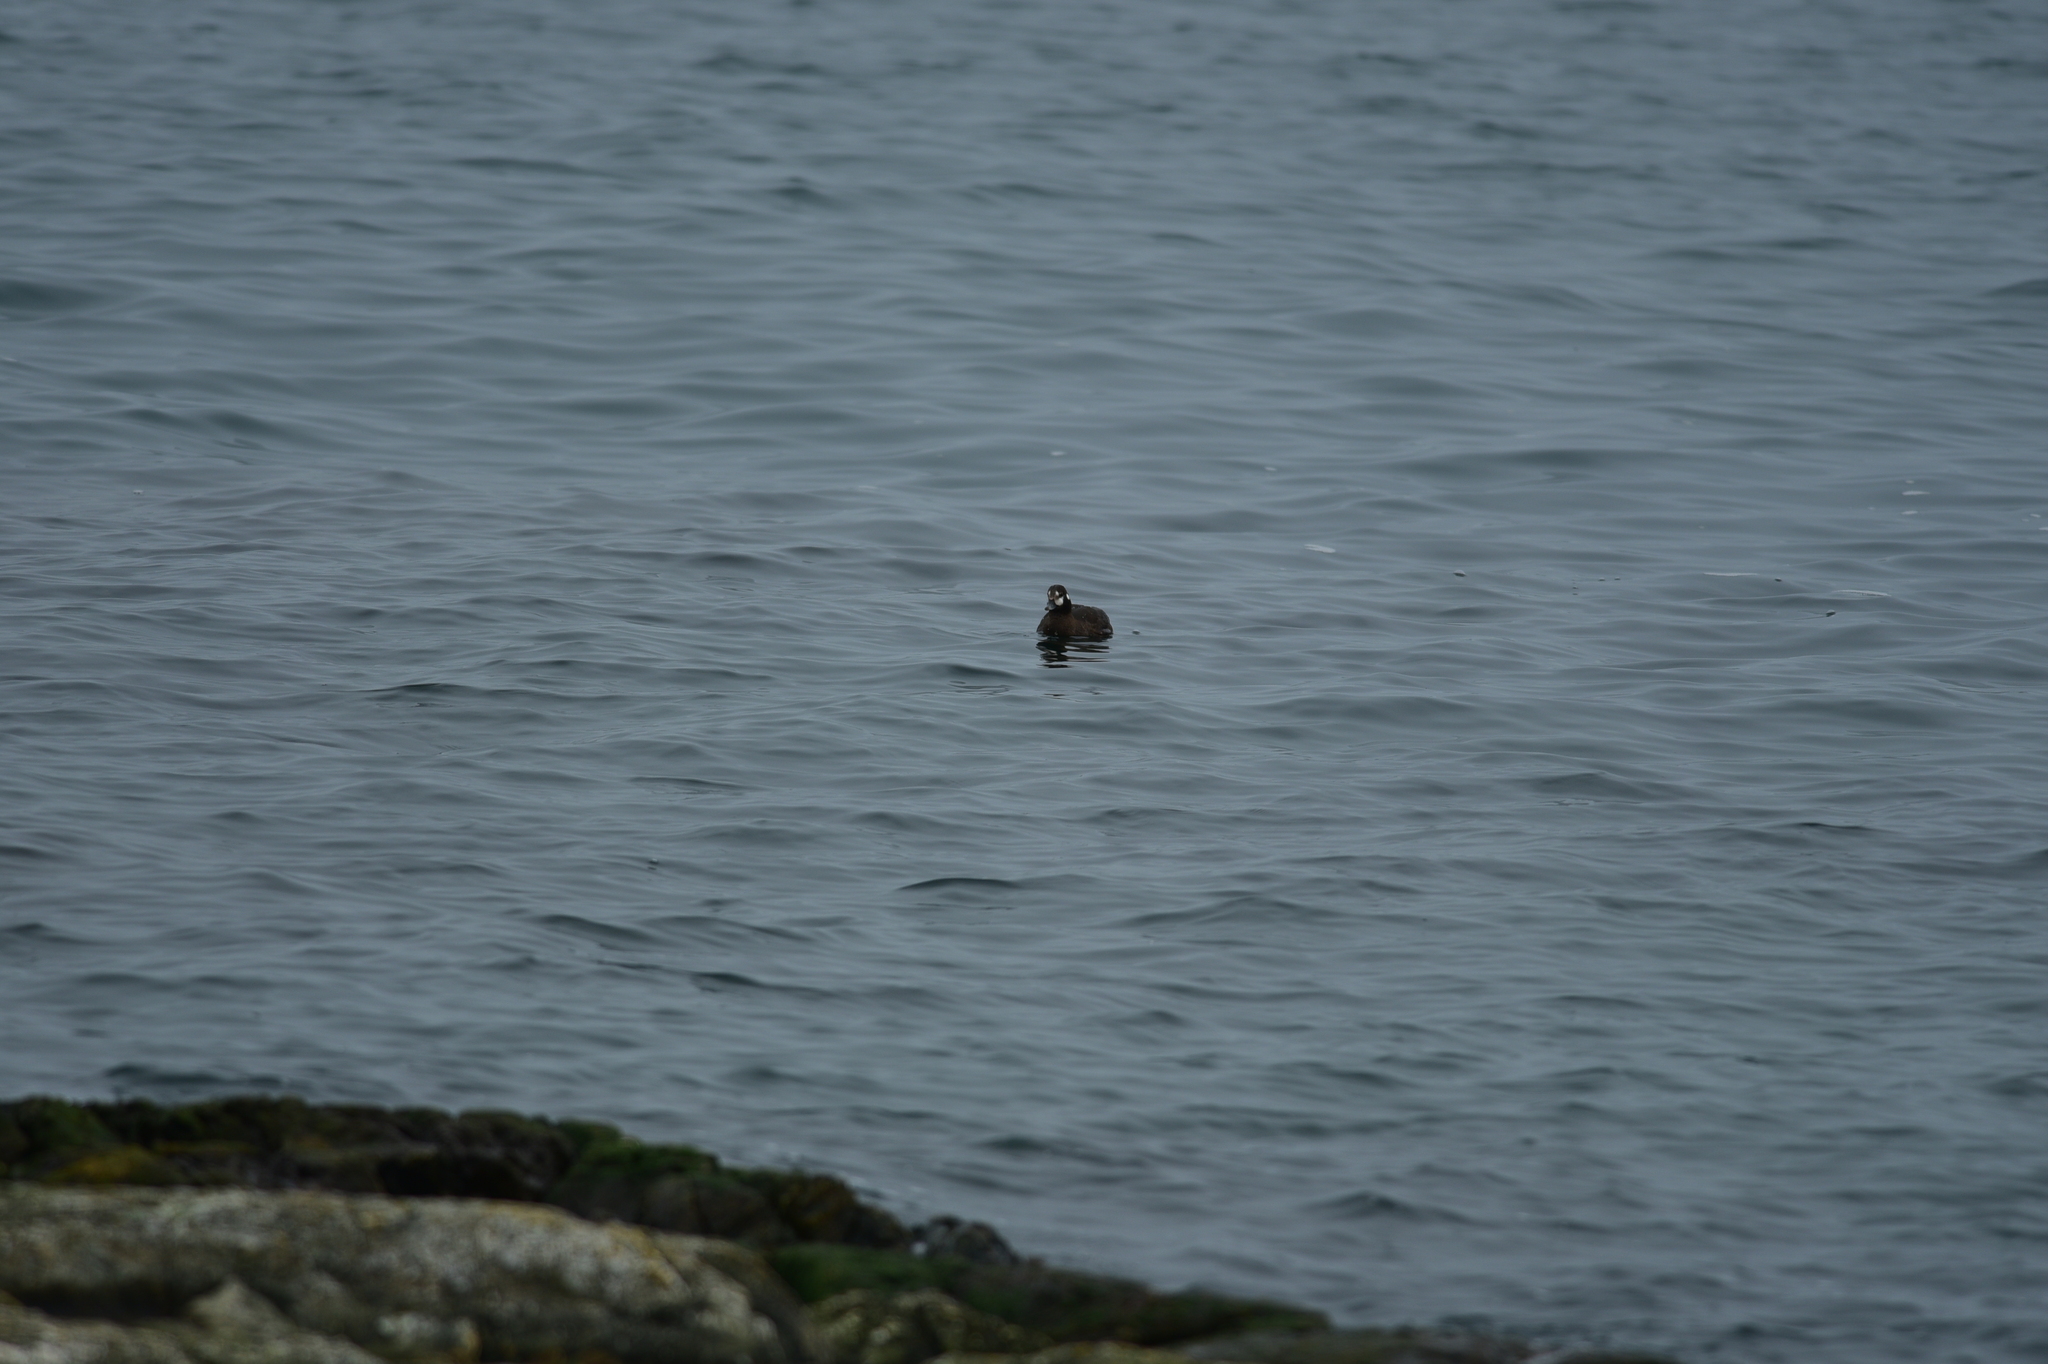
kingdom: Animalia
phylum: Chordata
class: Aves
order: Anseriformes
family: Anatidae
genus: Histrionicus
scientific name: Histrionicus histrionicus
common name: Harlequin duck
